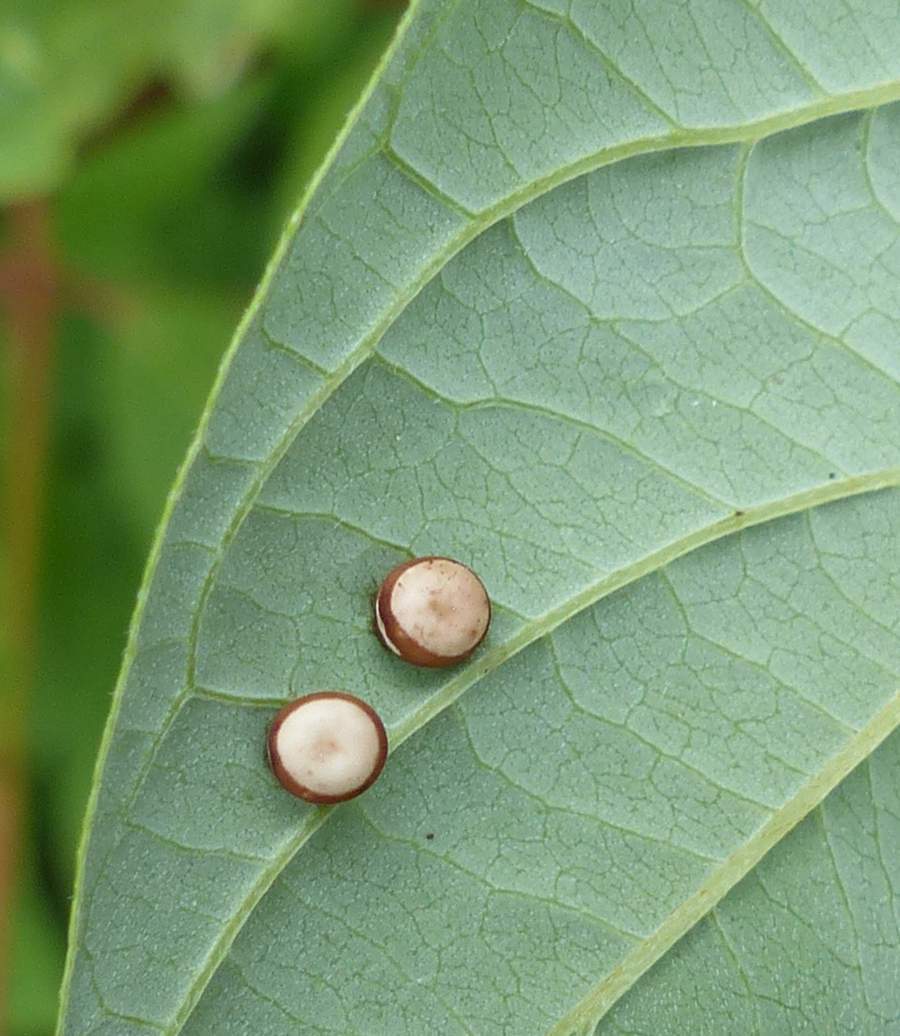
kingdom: Animalia
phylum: Arthropoda
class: Insecta
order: Lepidoptera
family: Saturniidae
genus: Antheraea
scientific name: Antheraea polyphemus
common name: Polyphemus moth
